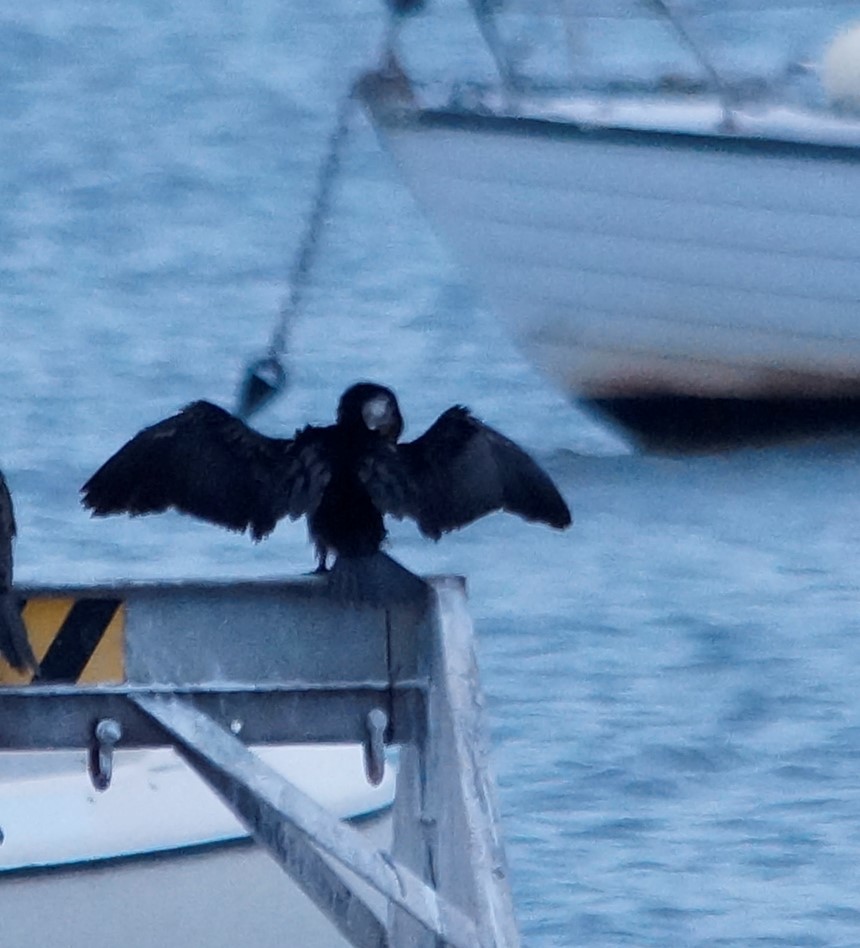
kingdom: Animalia
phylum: Chordata
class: Aves
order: Suliformes
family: Phalacrocoracidae
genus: Phalacrocorax
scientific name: Phalacrocorax sulcirostris
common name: Little black cormorant
